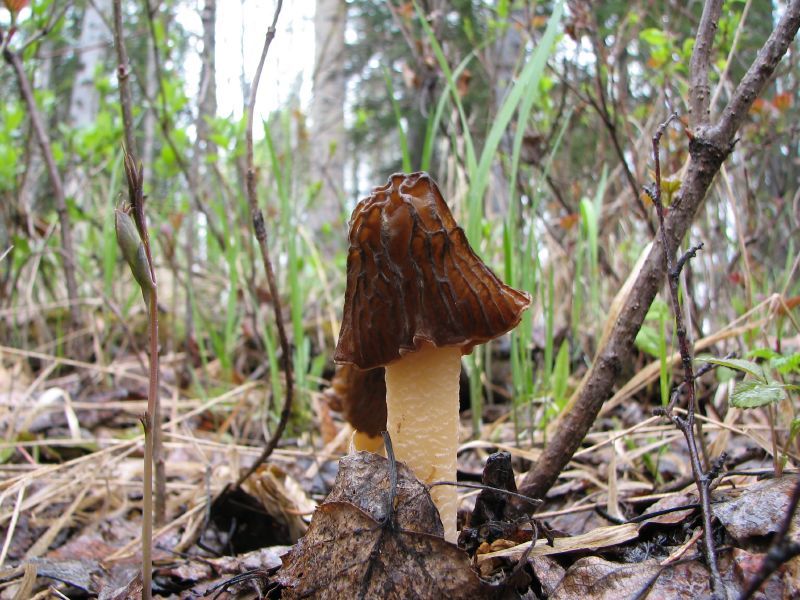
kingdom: Fungi
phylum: Ascomycota
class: Pezizomycetes
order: Pezizales
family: Morchellaceae
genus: Verpa
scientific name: Verpa bohemica
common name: Wrinkled thimble morel
